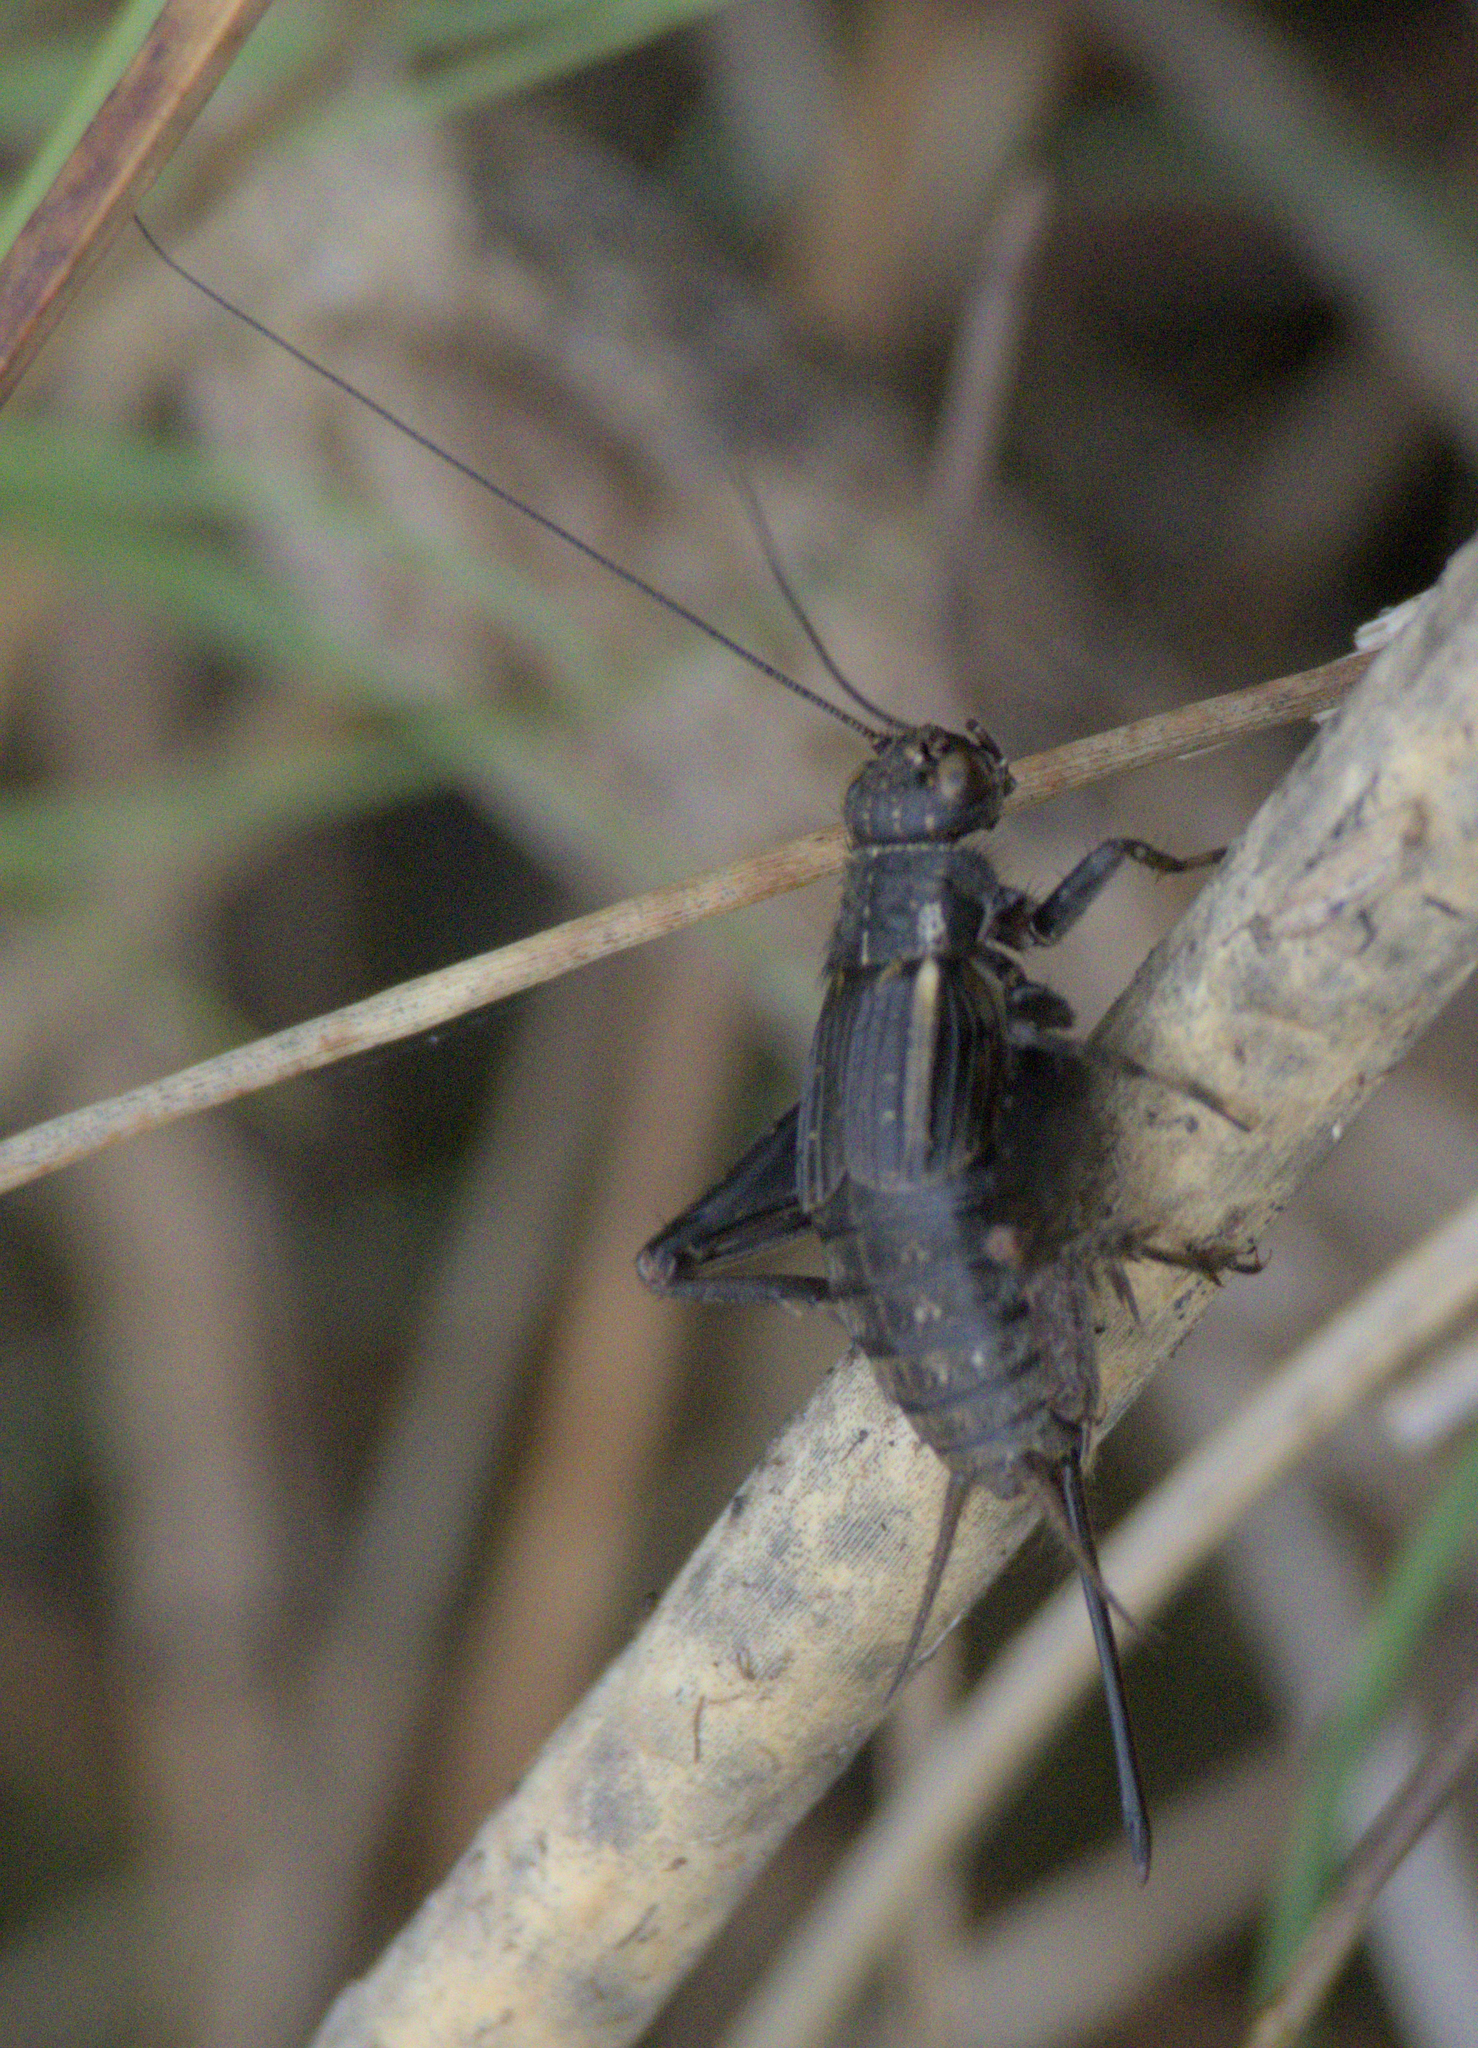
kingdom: Animalia
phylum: Arthropoda
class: Insecta
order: Orthoptera
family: Gryllidae
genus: Gryllus
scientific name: Gryllus pennsylvanicus
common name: Fall field cricket
